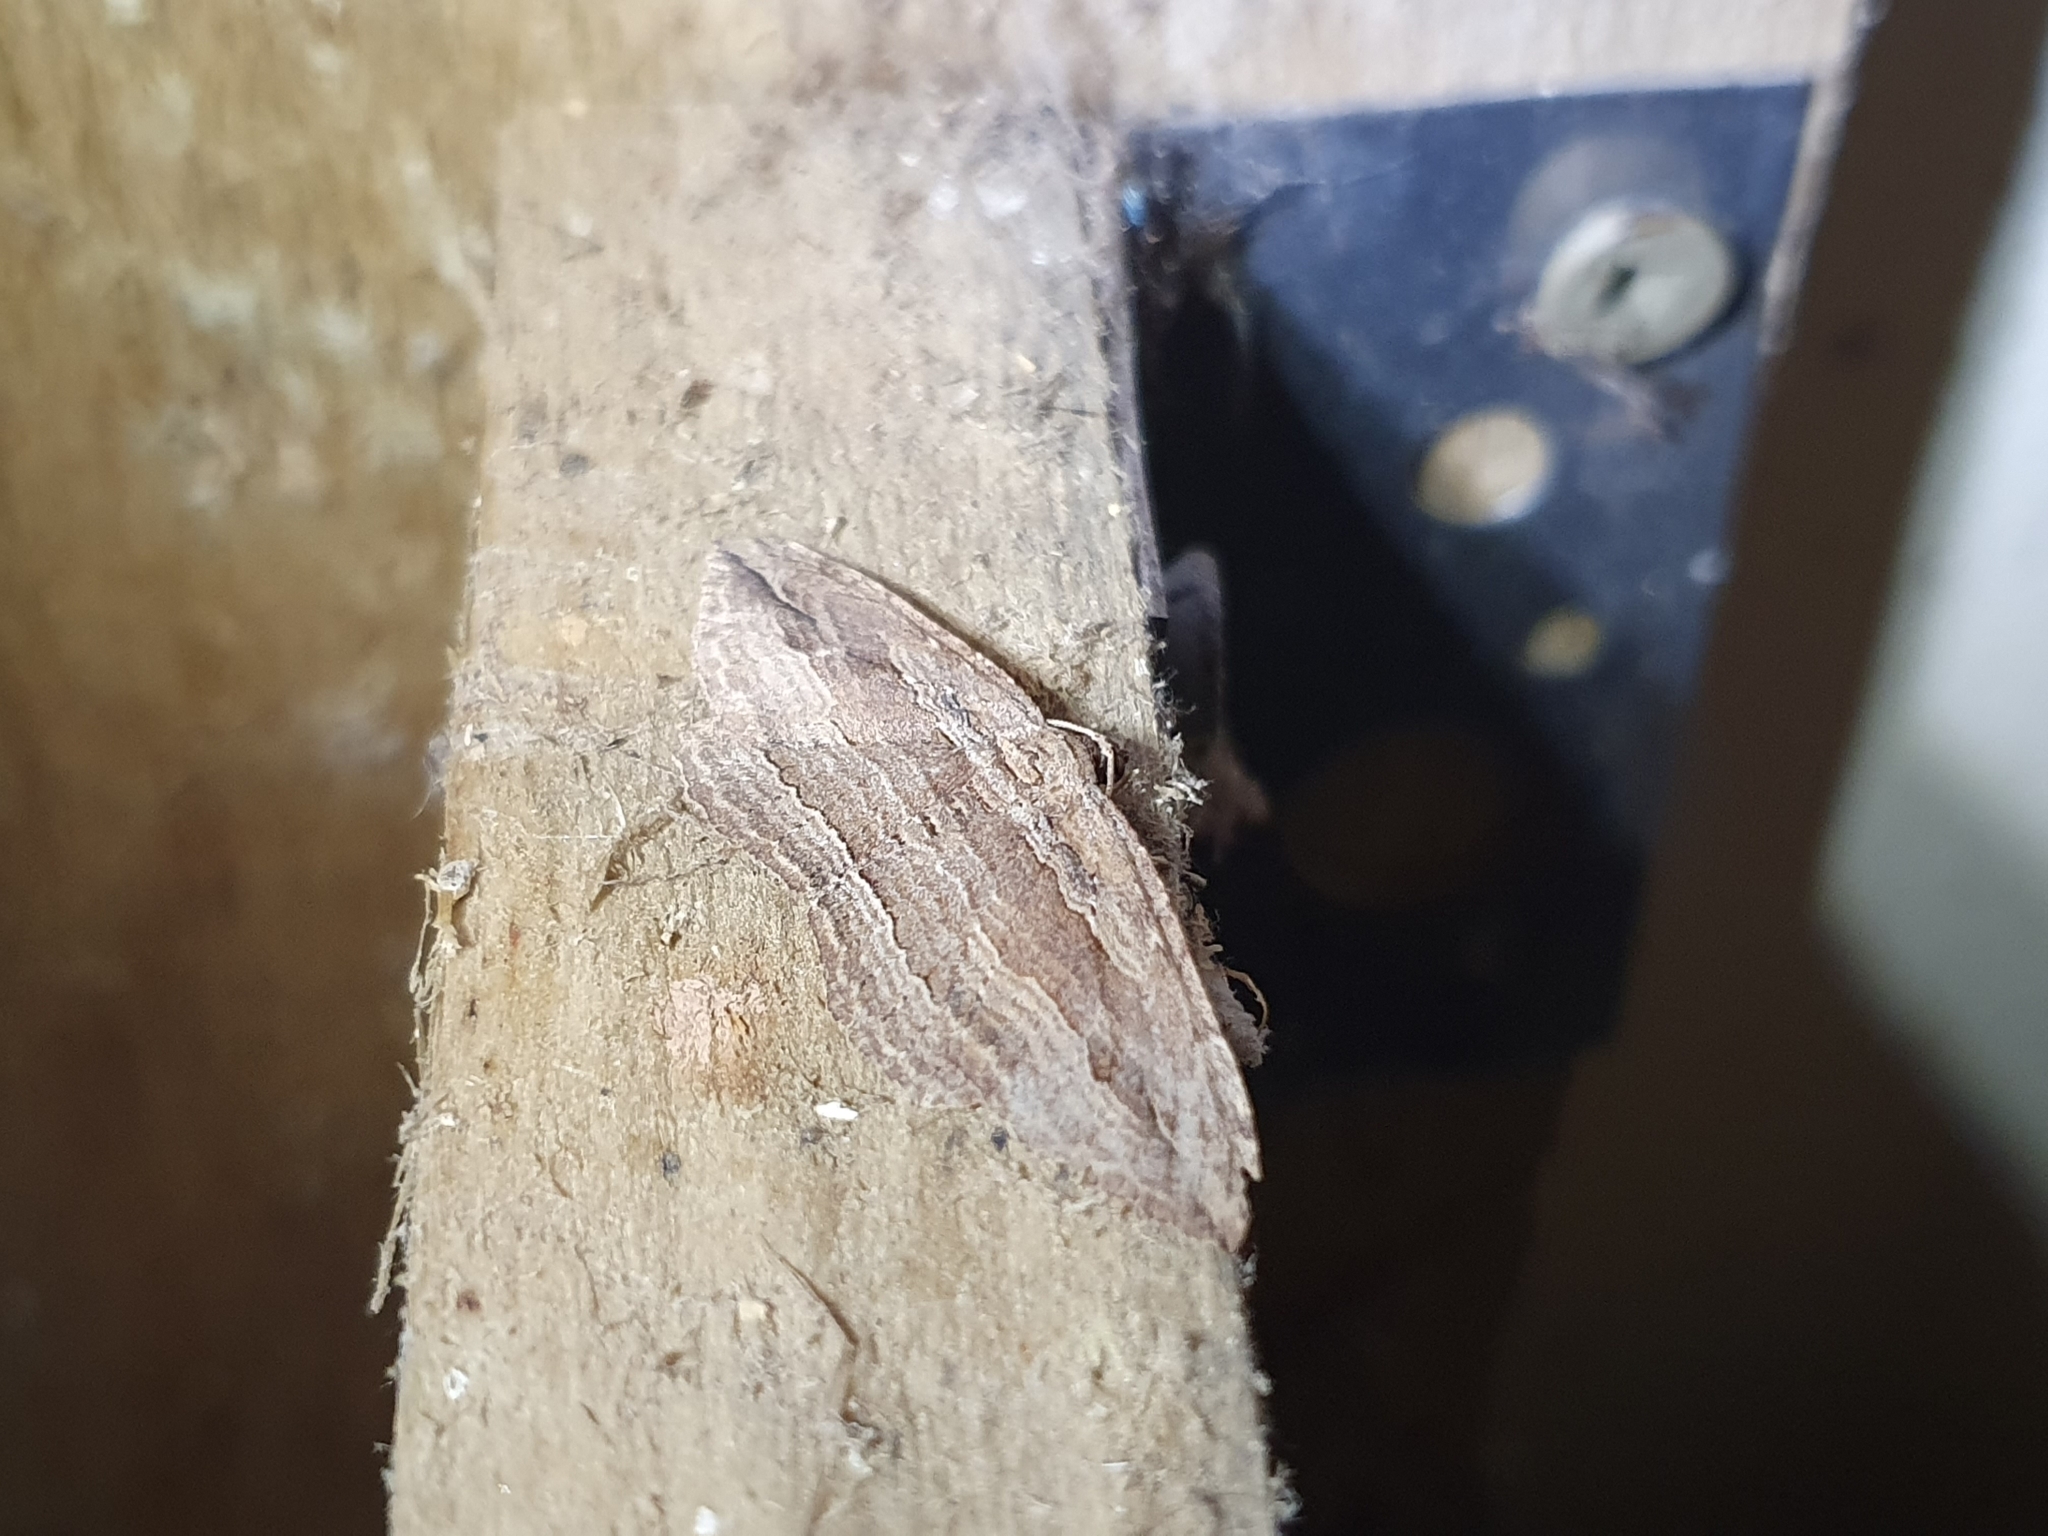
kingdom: Animalia
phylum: Arthropoda
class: Insecta
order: Lepidoptera
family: Geometridae
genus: Austrocidaria
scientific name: Austrocidaria gobiata
